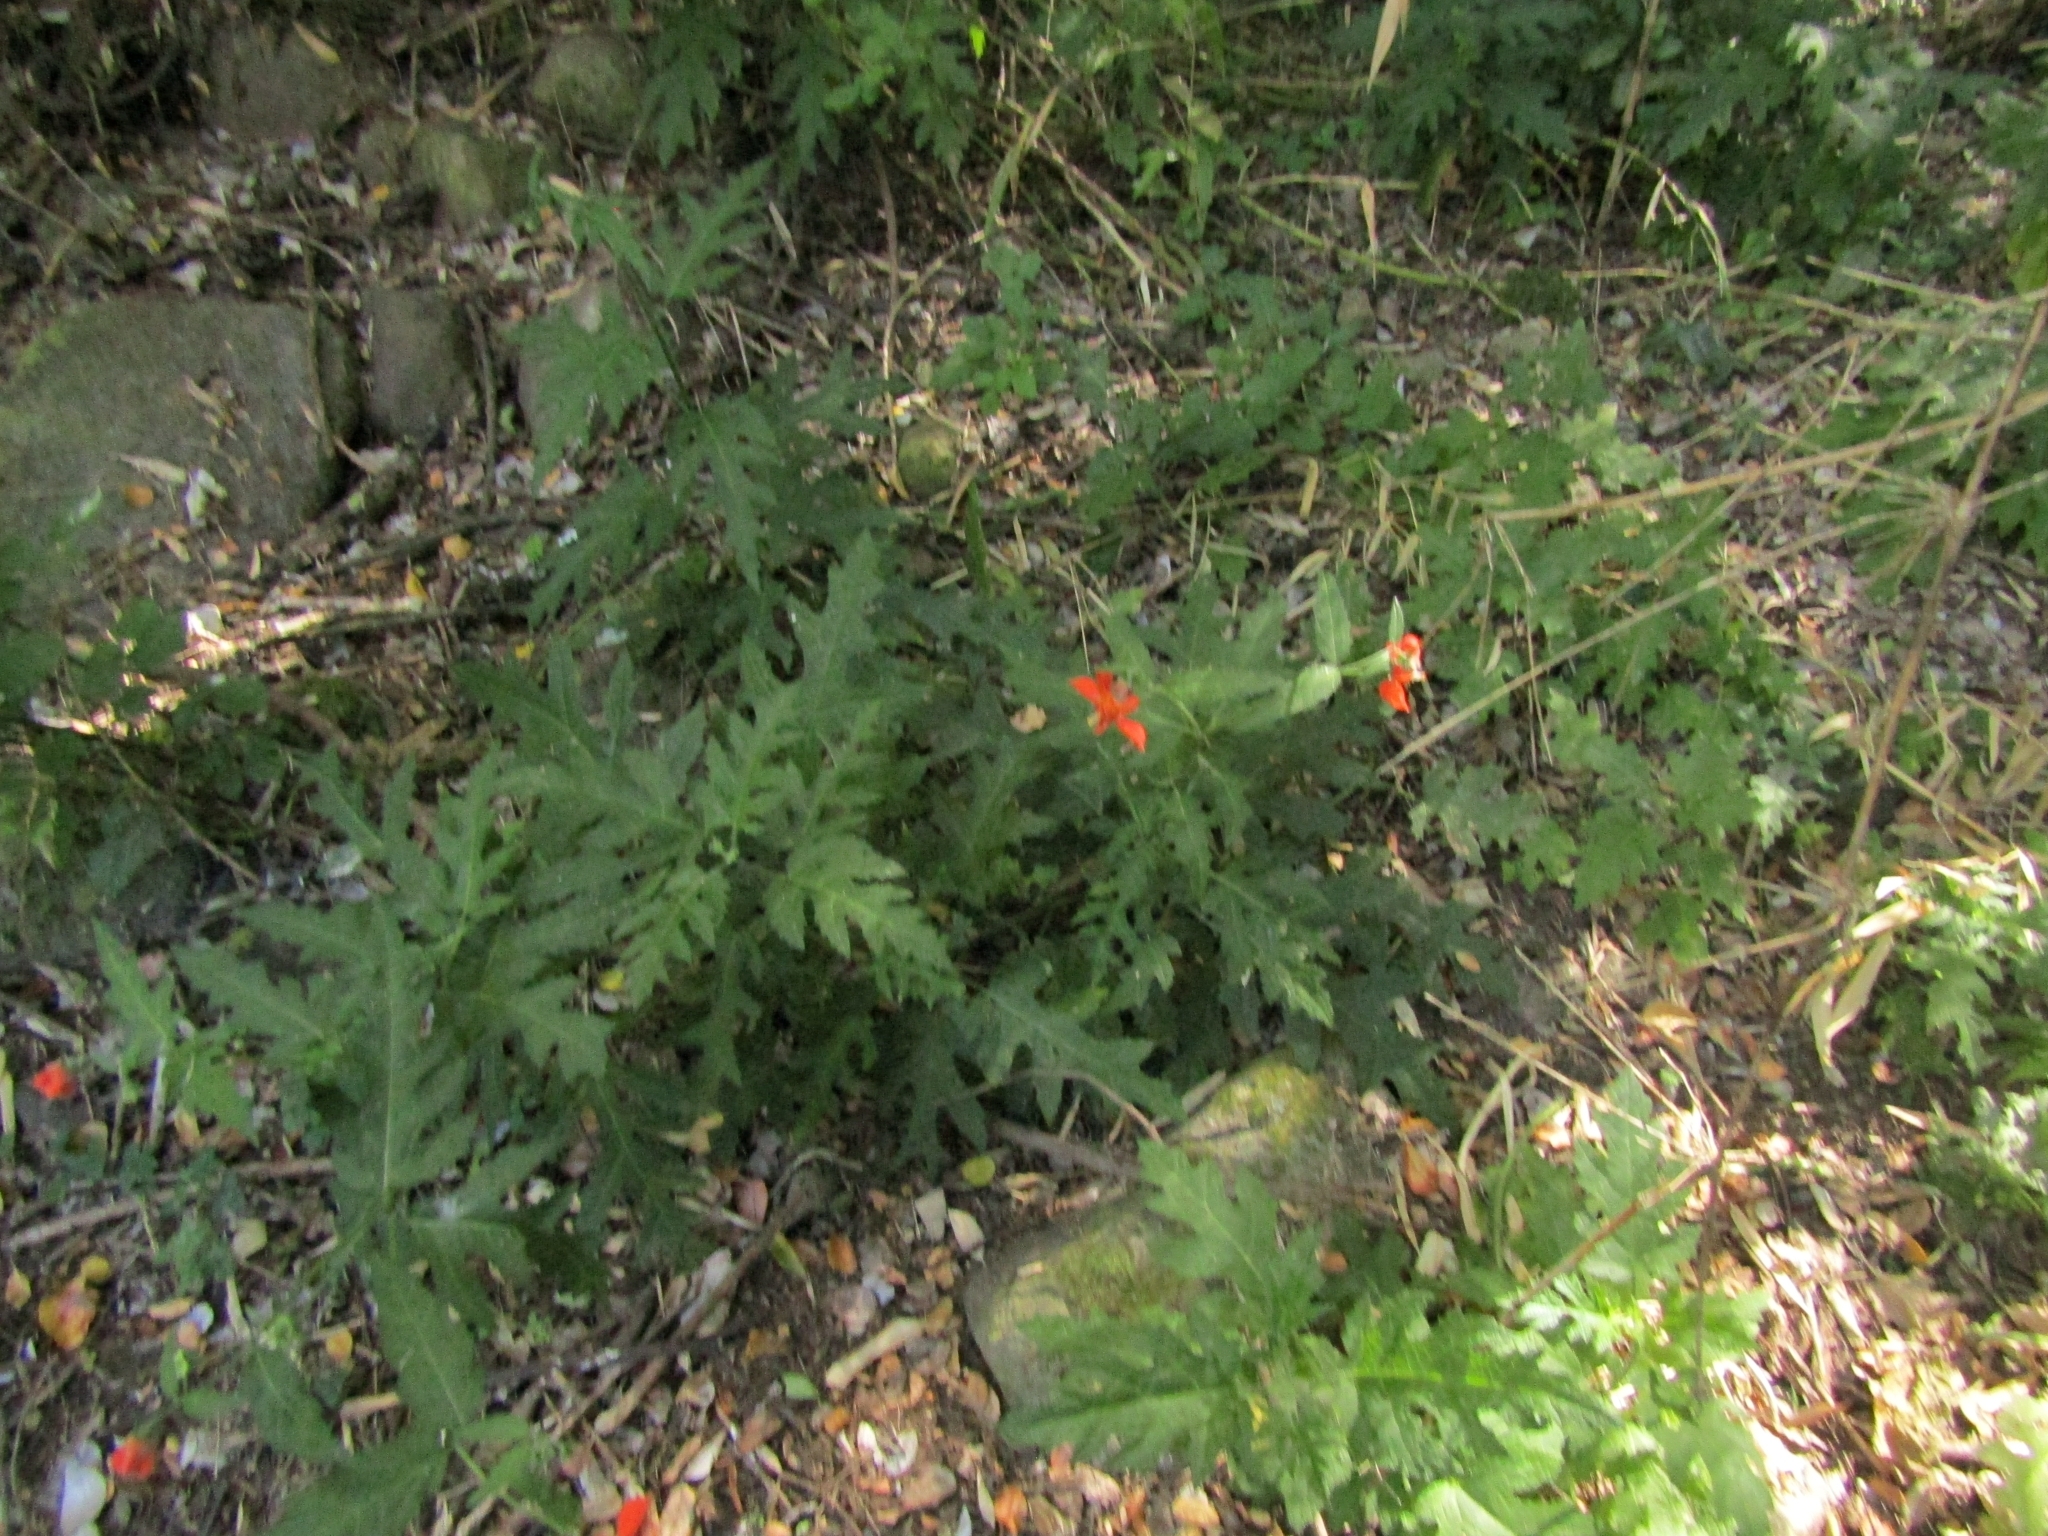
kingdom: Plantae
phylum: Tracheophyta
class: Magnoliopsida
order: Cornales
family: Loasaceae
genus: Loasa
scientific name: Loasa acanthifolia
